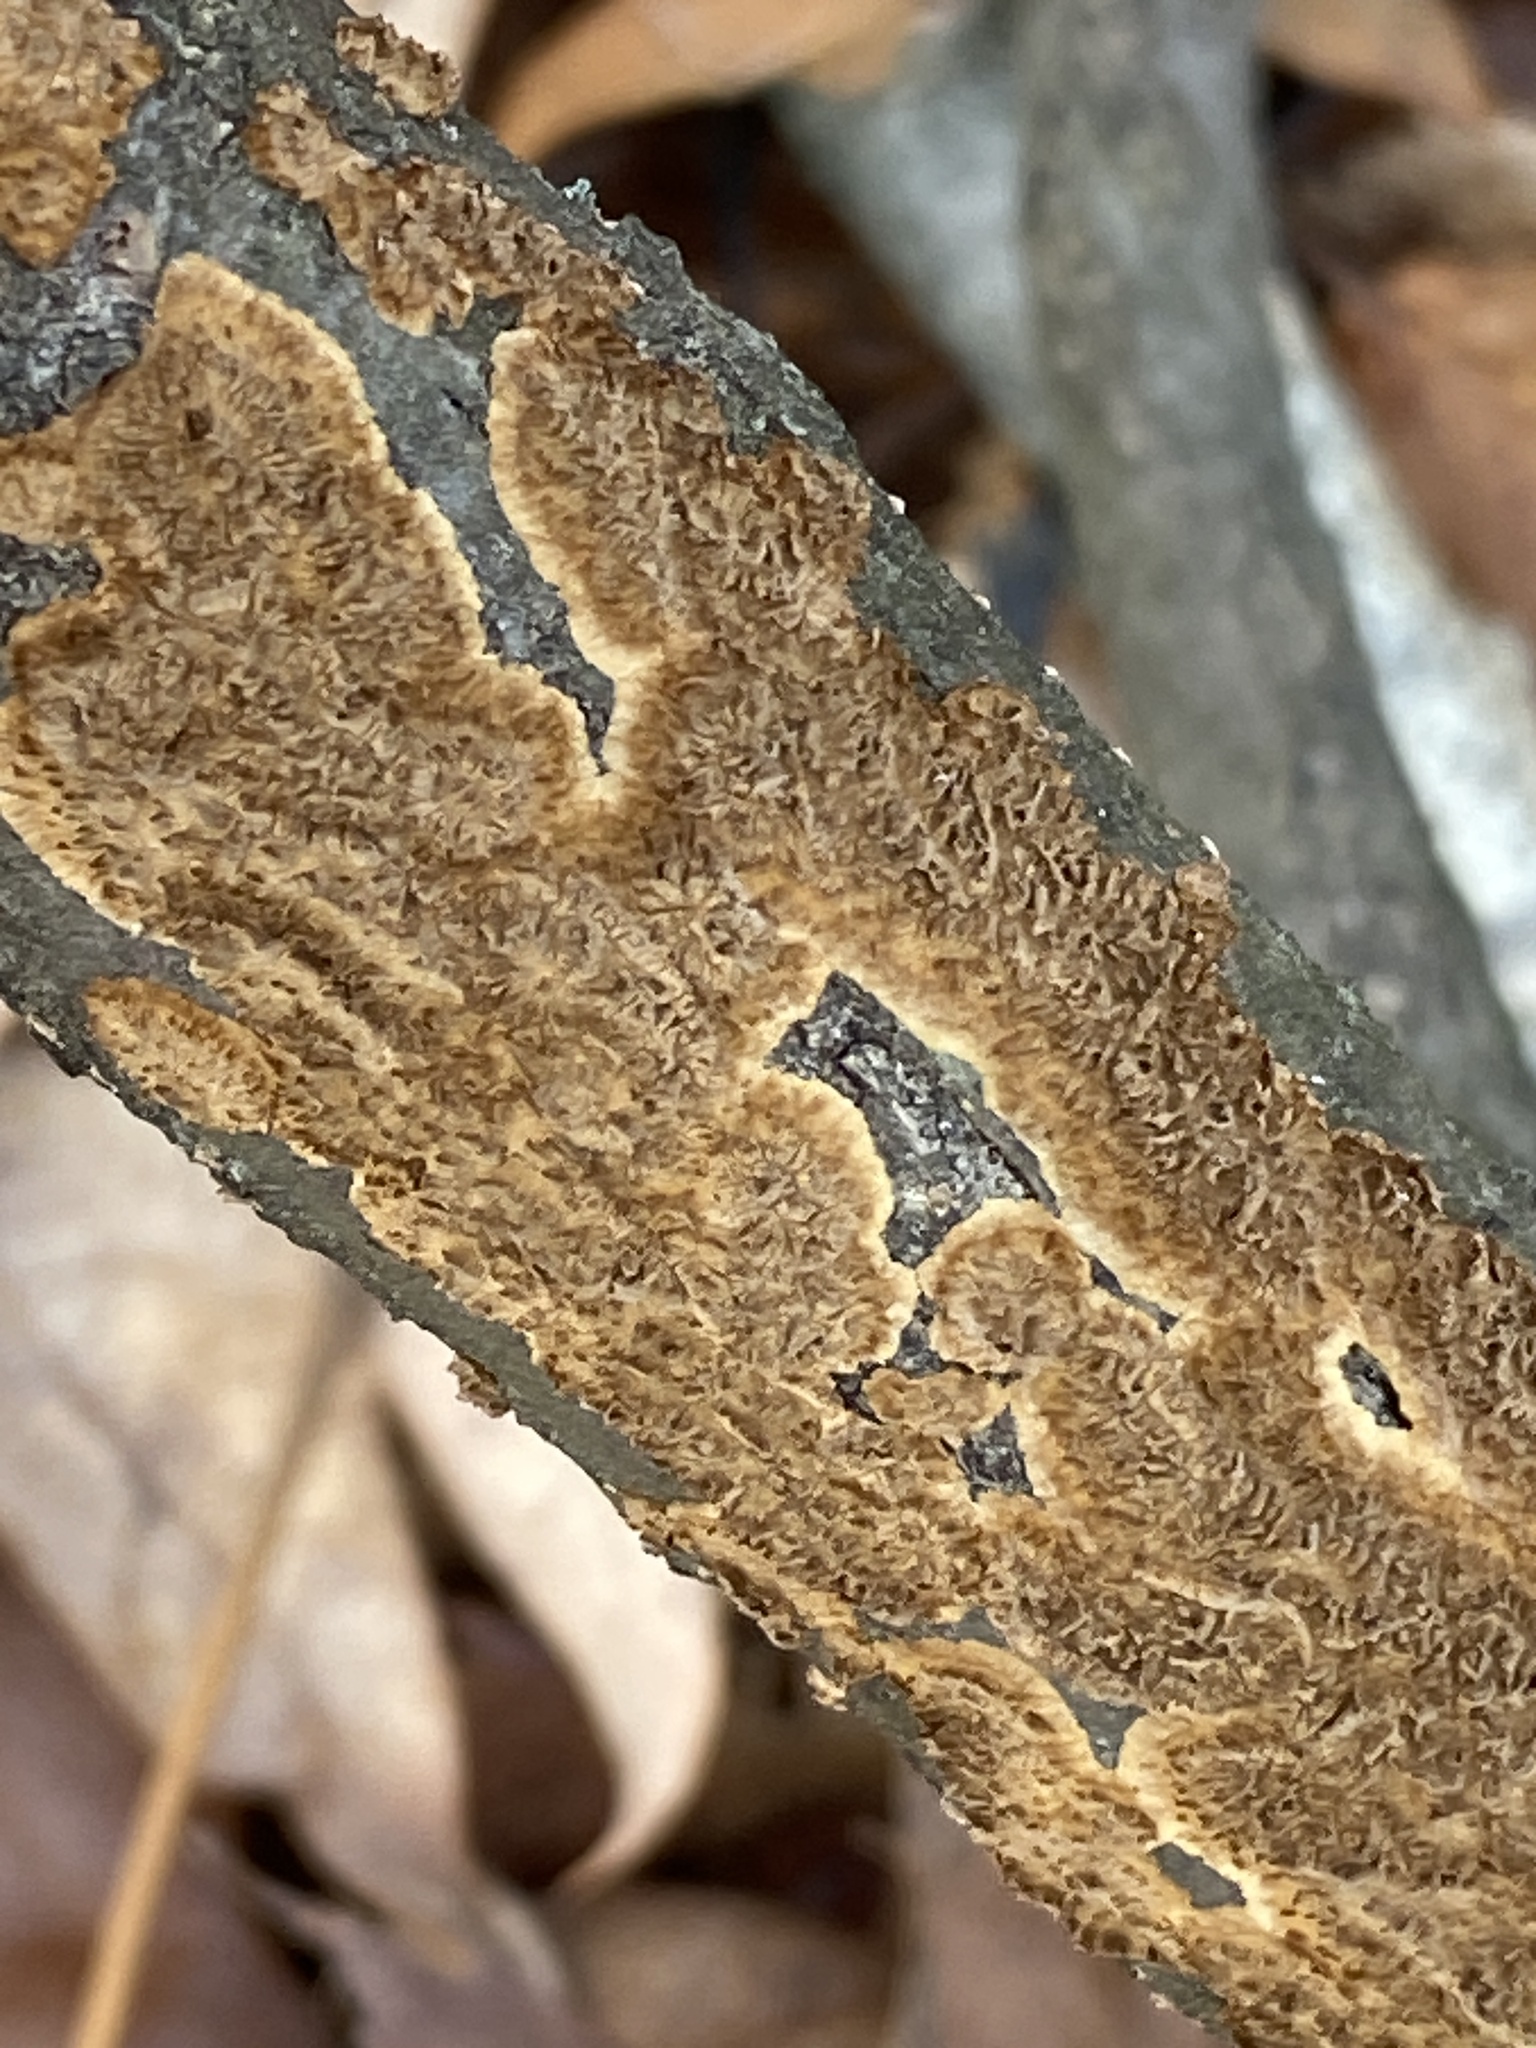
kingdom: Fungi
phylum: Basidiomycota
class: Agaricomycetes
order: Hymenochaetales
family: Hymenochaetaceae
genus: Hydnoporia
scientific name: Hydnoporia olivacea
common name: Brown-toothed crust fungus
